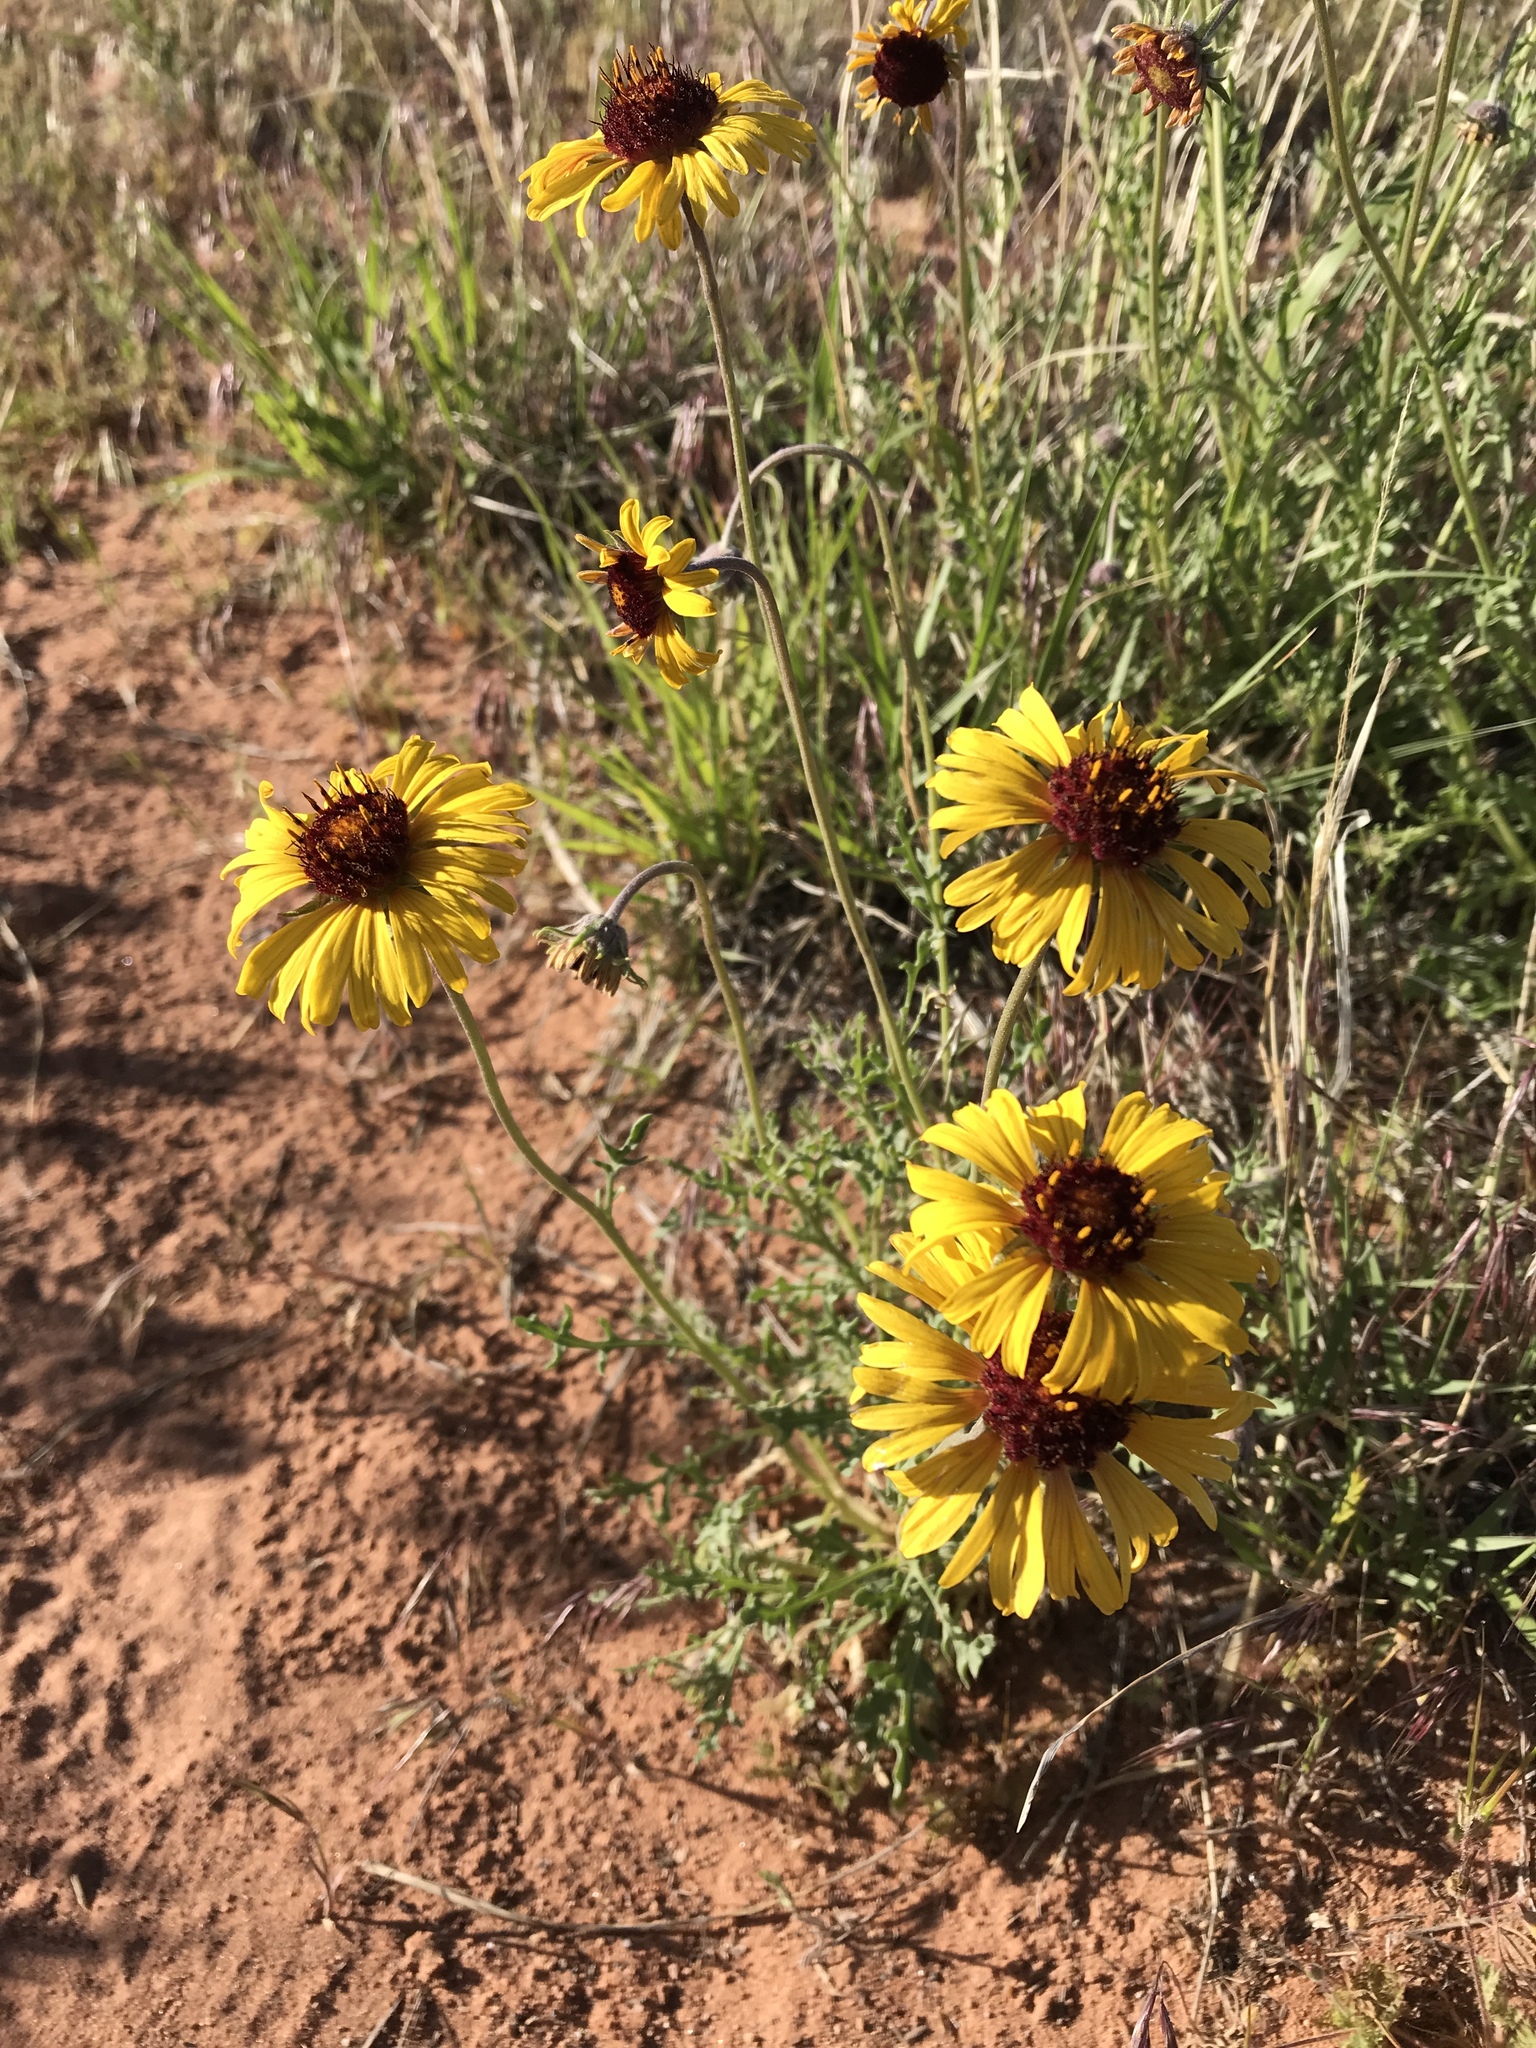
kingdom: Plantae
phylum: Tracheophyta
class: Magnoliopsida
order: Asterales
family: Asteraceae
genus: Gaillardia
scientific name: Gaillardia pinnatifida
